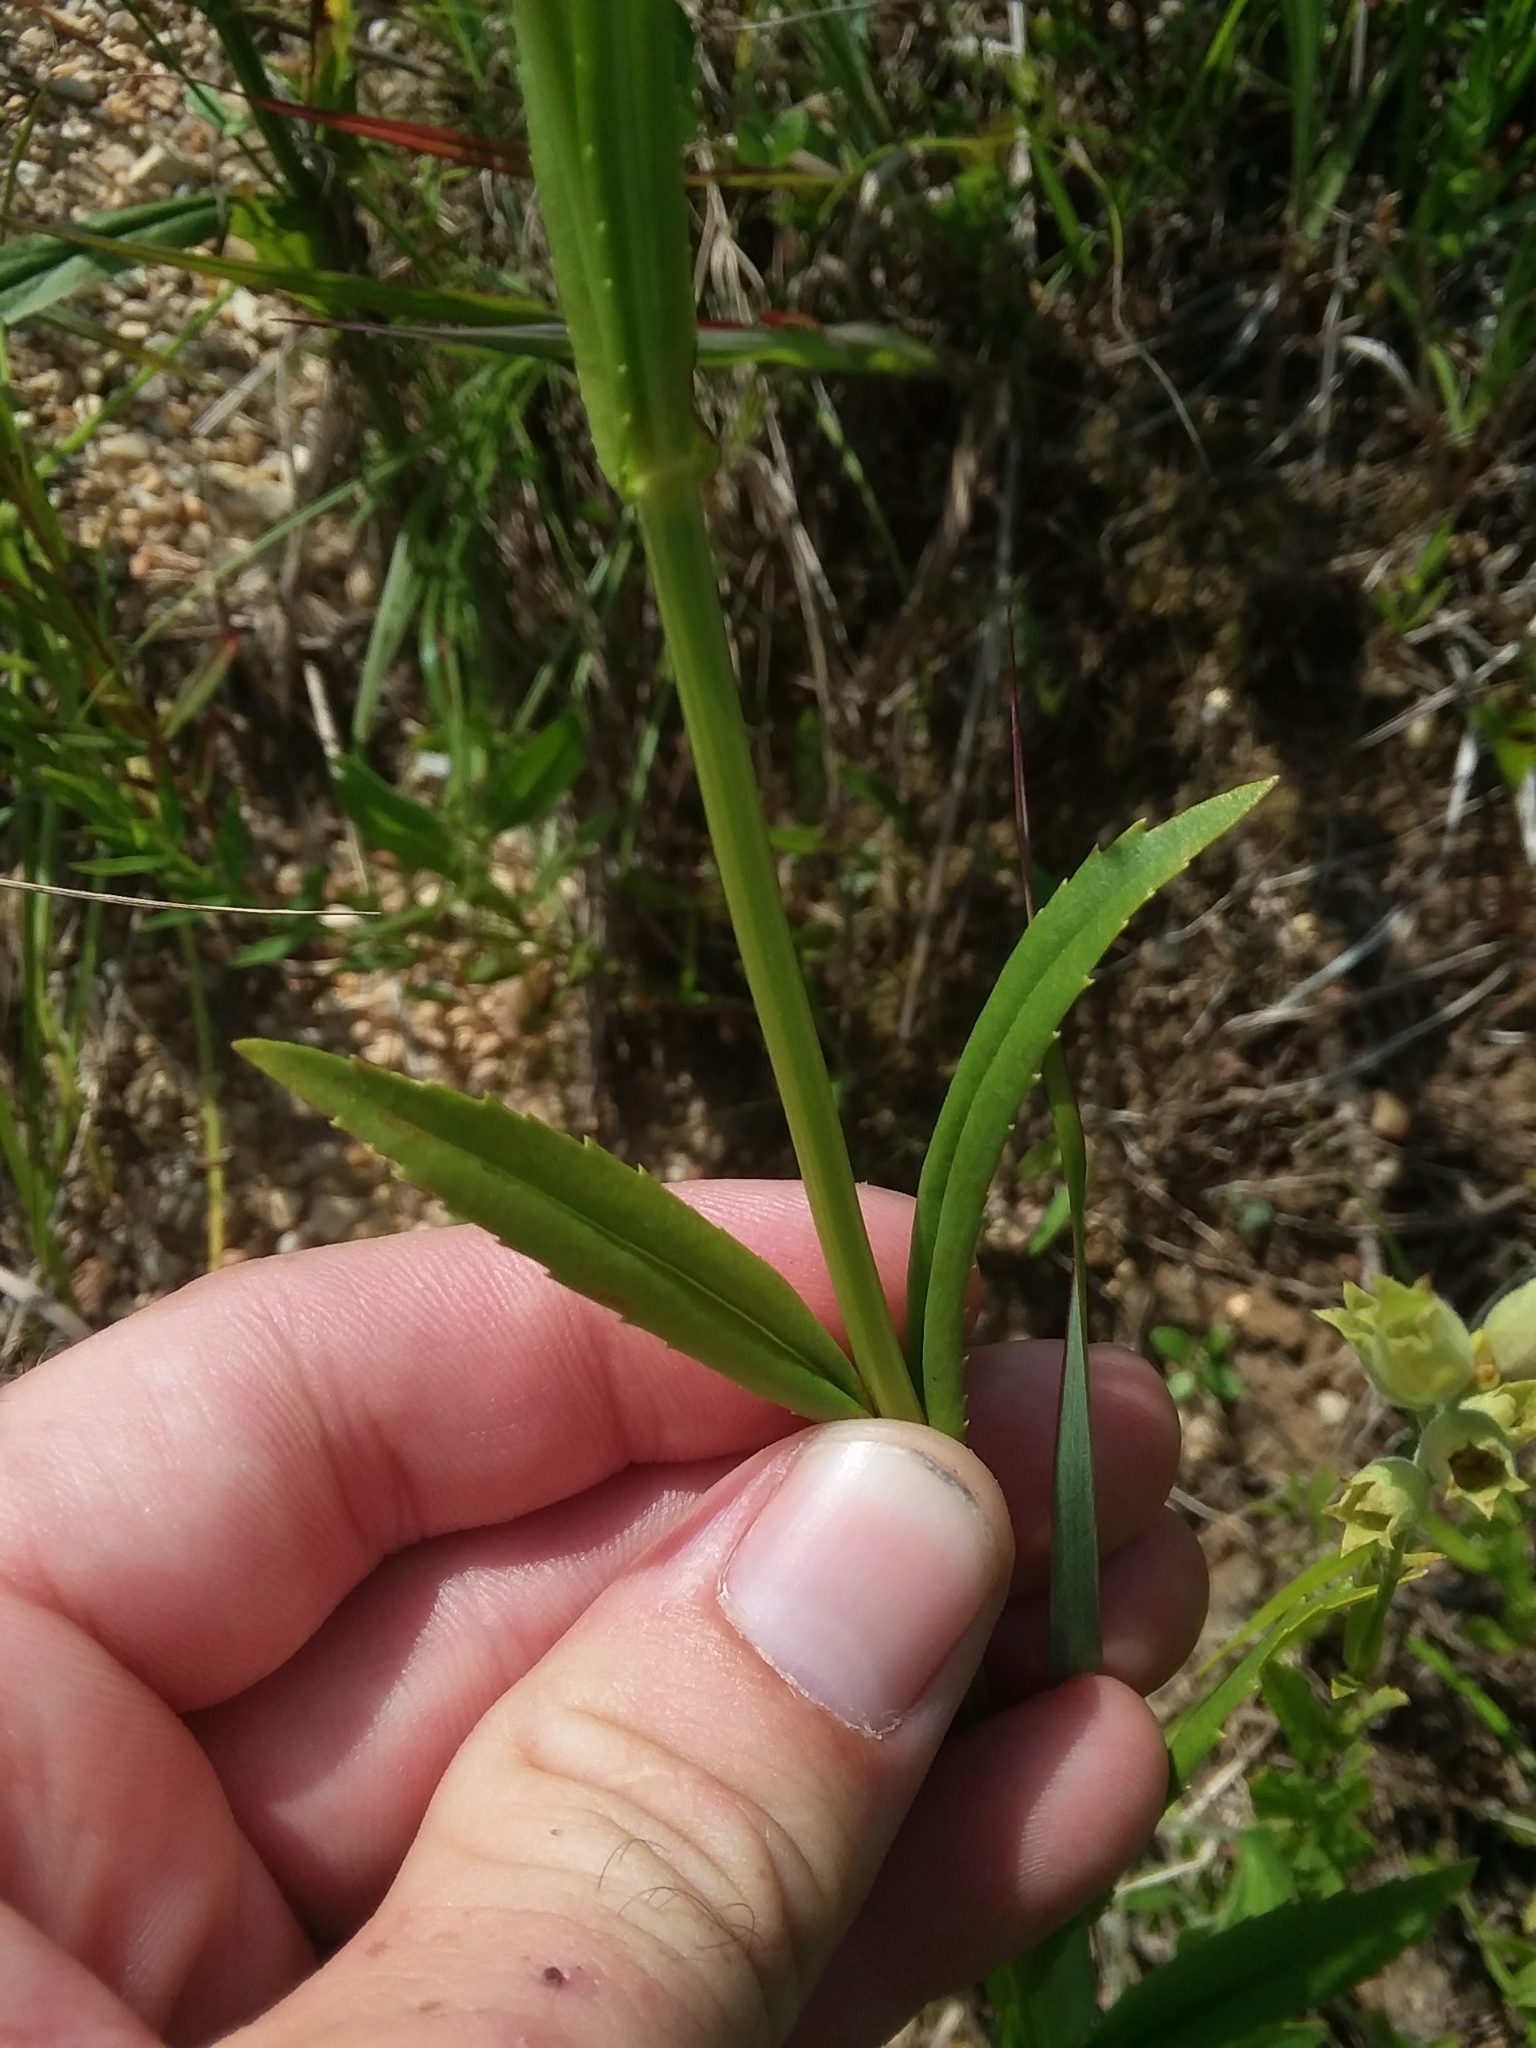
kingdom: Plantae
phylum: Tracheophyta
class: Magnoliopsida
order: Lamiales
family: Lamiaceae
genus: Physostegia
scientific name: Physostegia angustifolia
